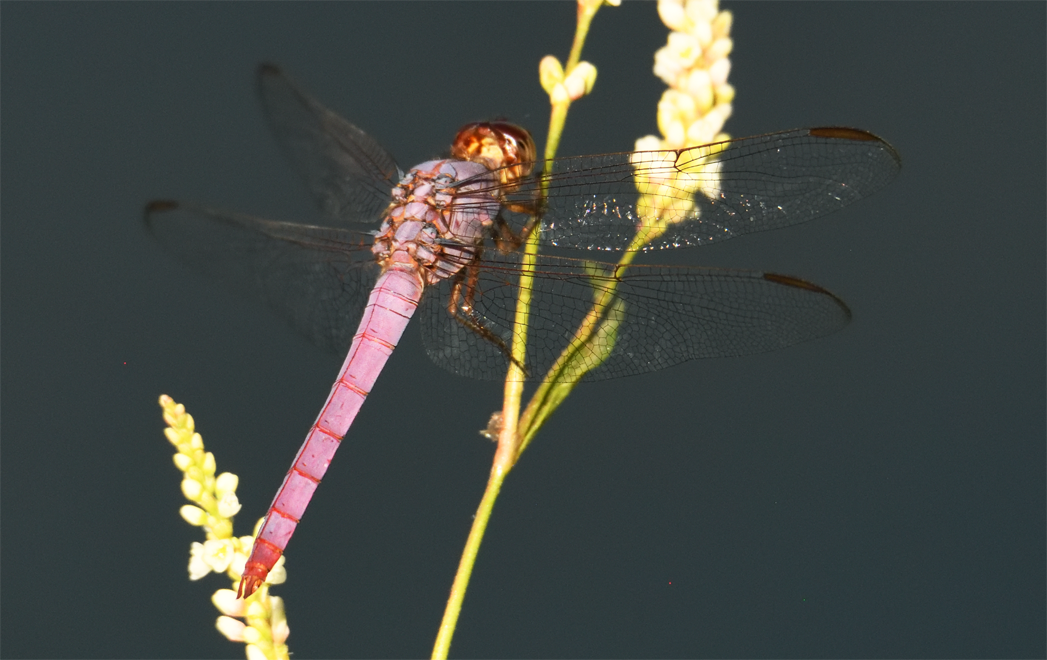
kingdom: Animalia
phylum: Arthropoda
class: Insecta
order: Odonata
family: Libellulidae
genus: Orthemis
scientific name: Orthemis ferruginea
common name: Roseate skimmer
